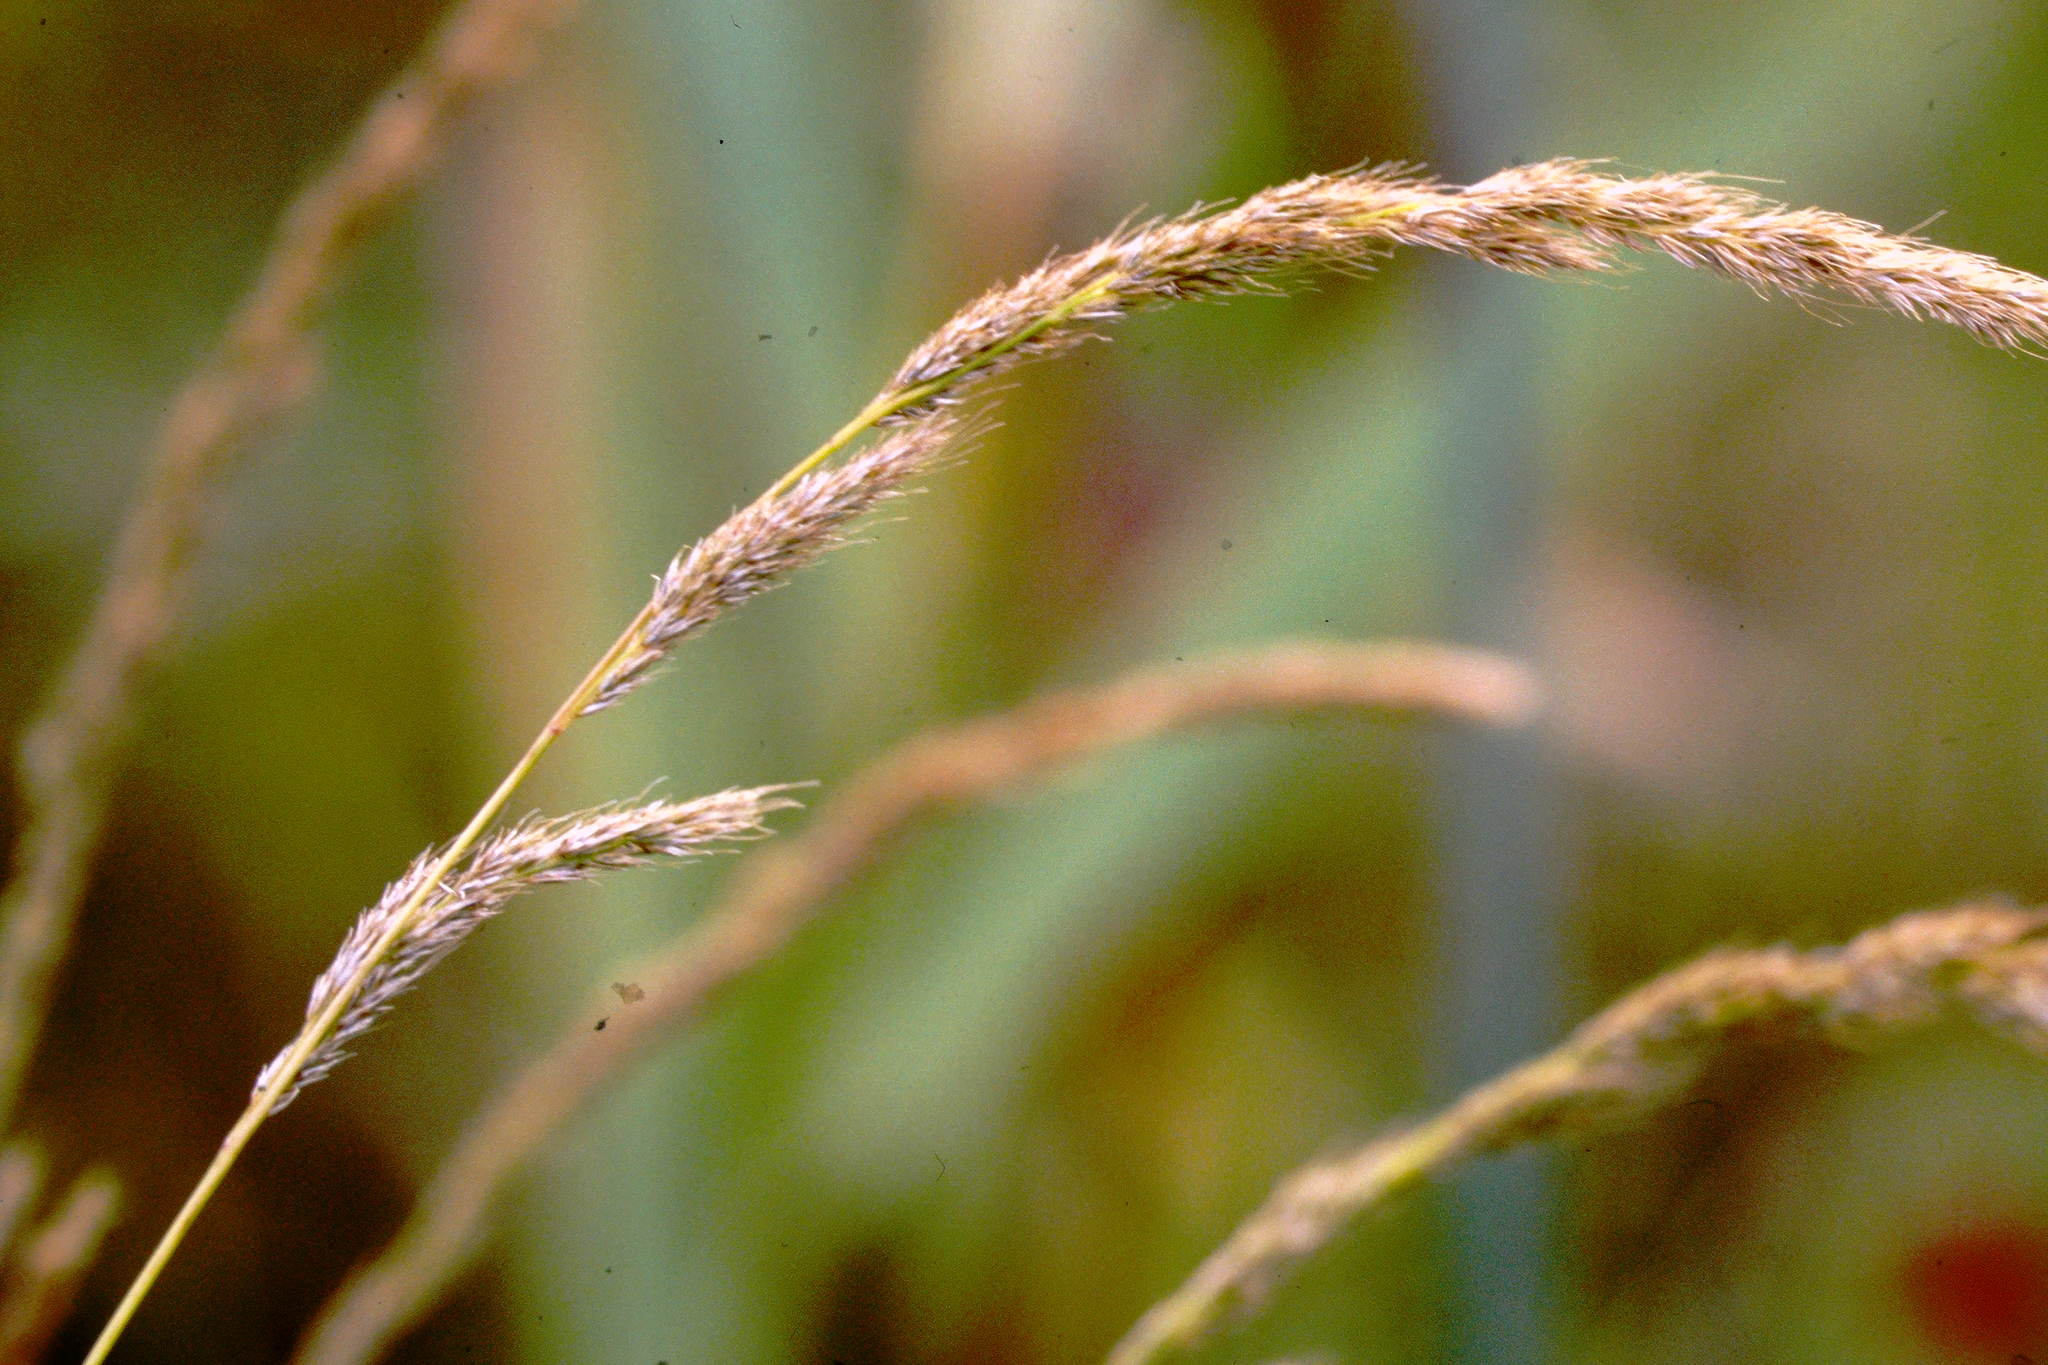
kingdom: Plantae
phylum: Tracheophyta
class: Liliopsida
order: Poales
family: Poaceae
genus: Muhlenbergia
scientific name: Muhlenbergia glomerata
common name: Bog muhly
